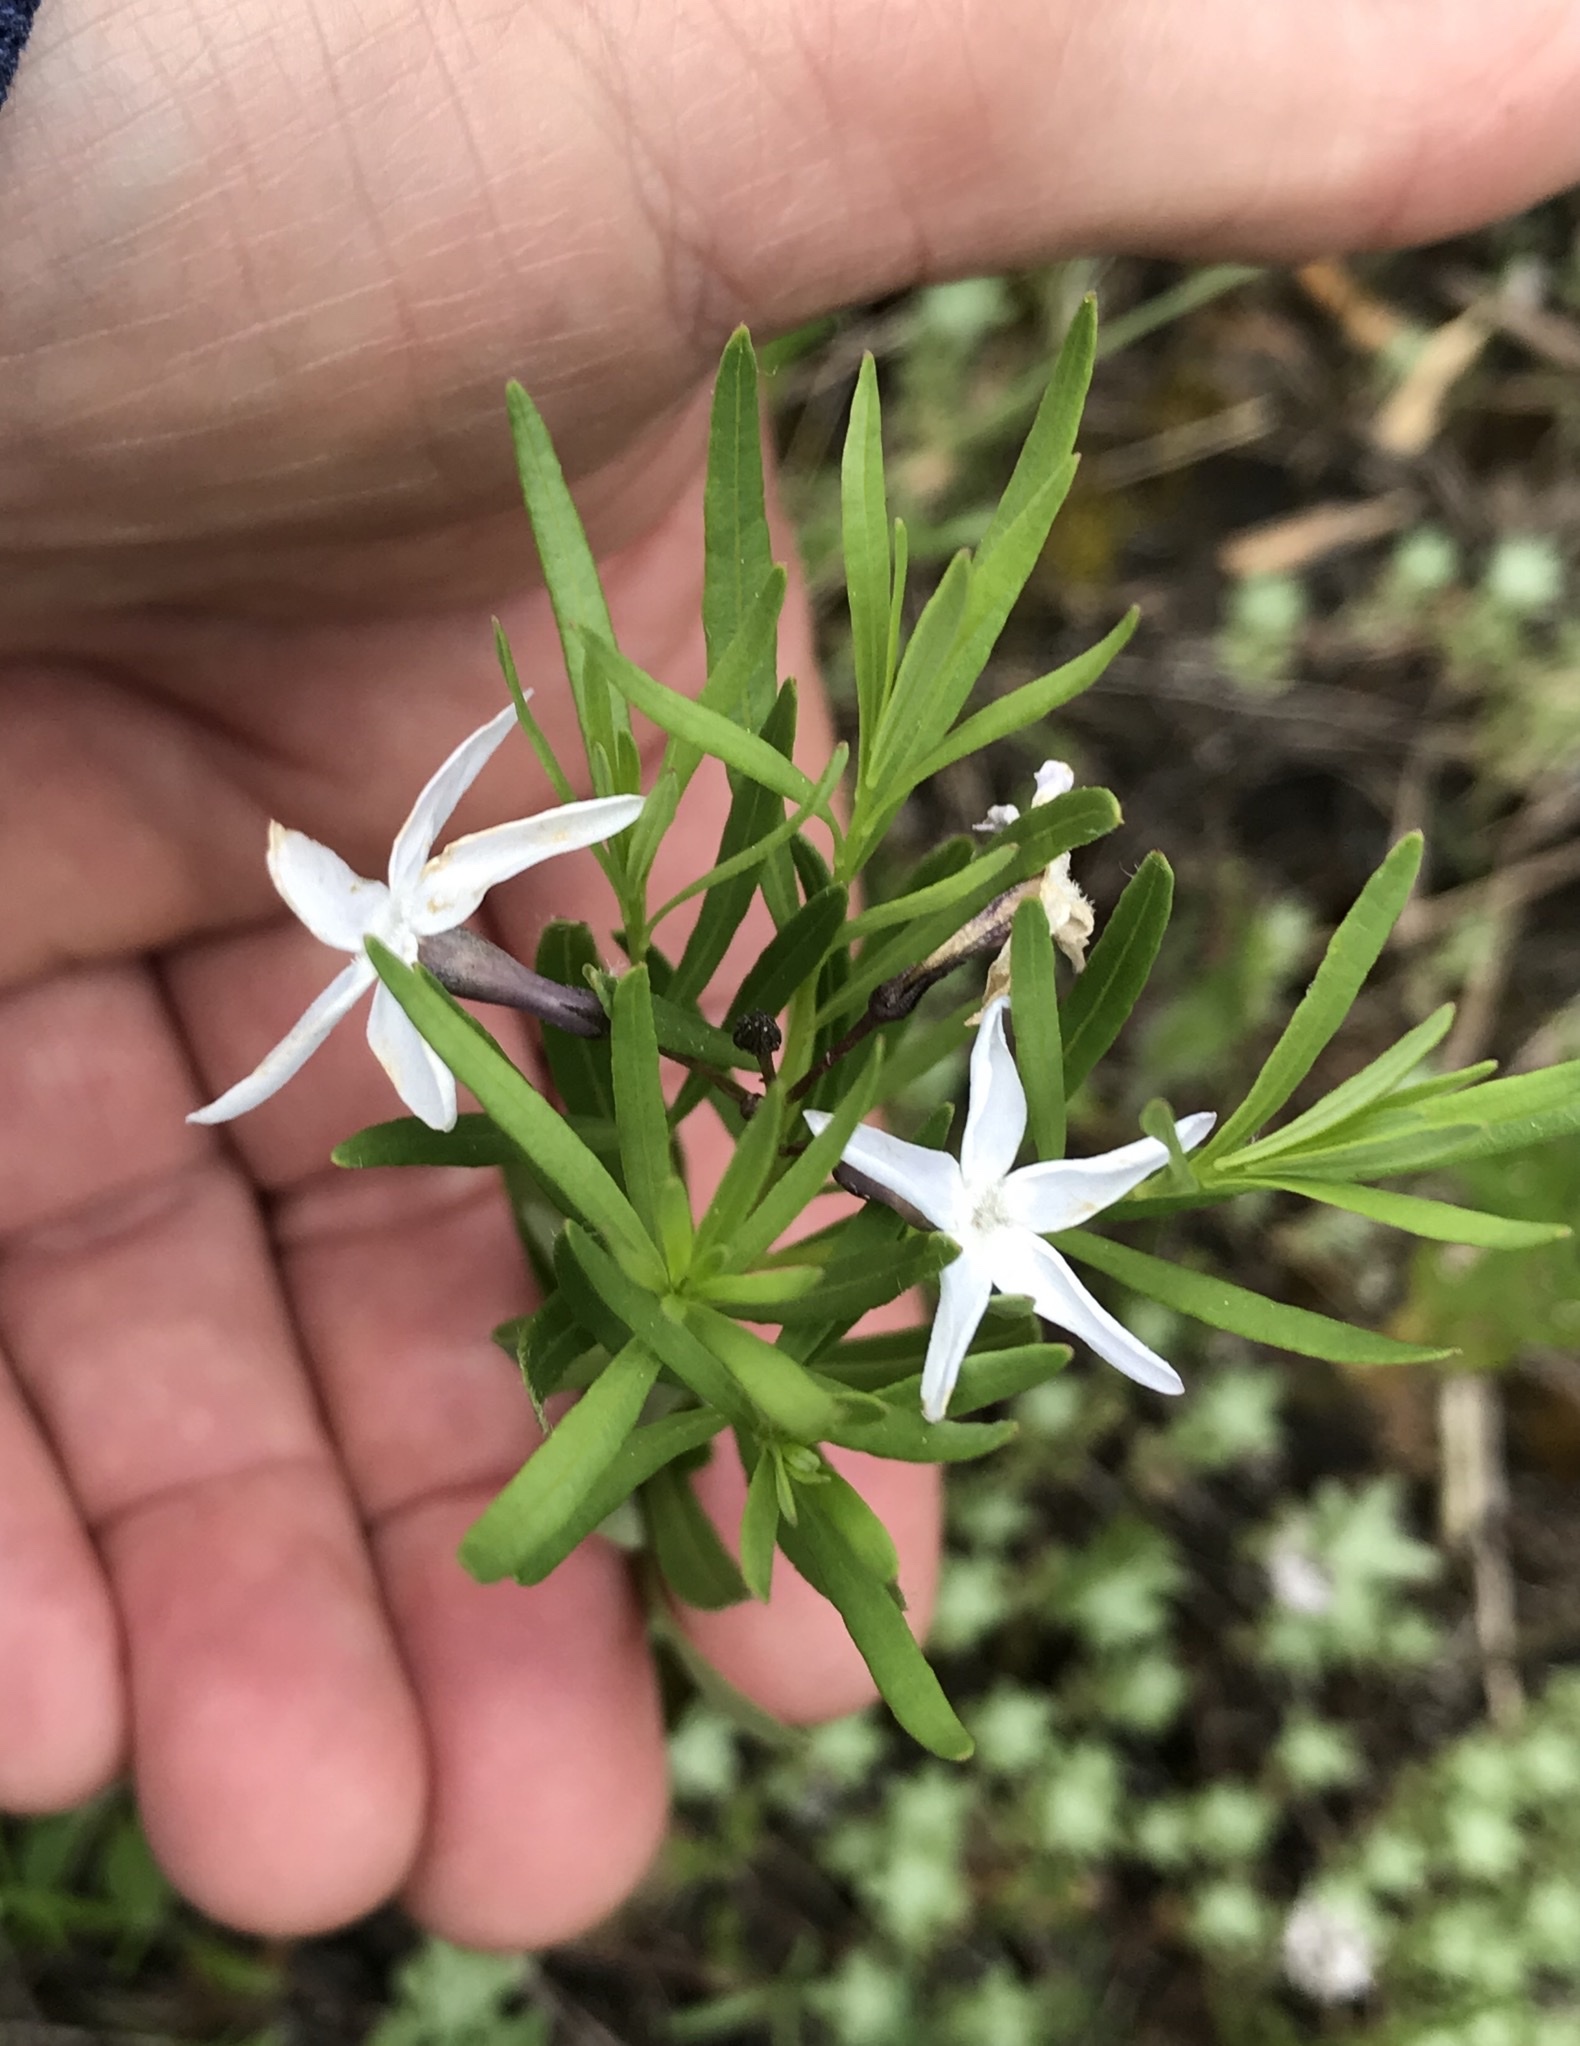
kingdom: Plantae
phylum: Tracheophyta
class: Magnoliopsida
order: Gentianales
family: Apocynaceae
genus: Amsonia
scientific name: Amsonia ciliata
